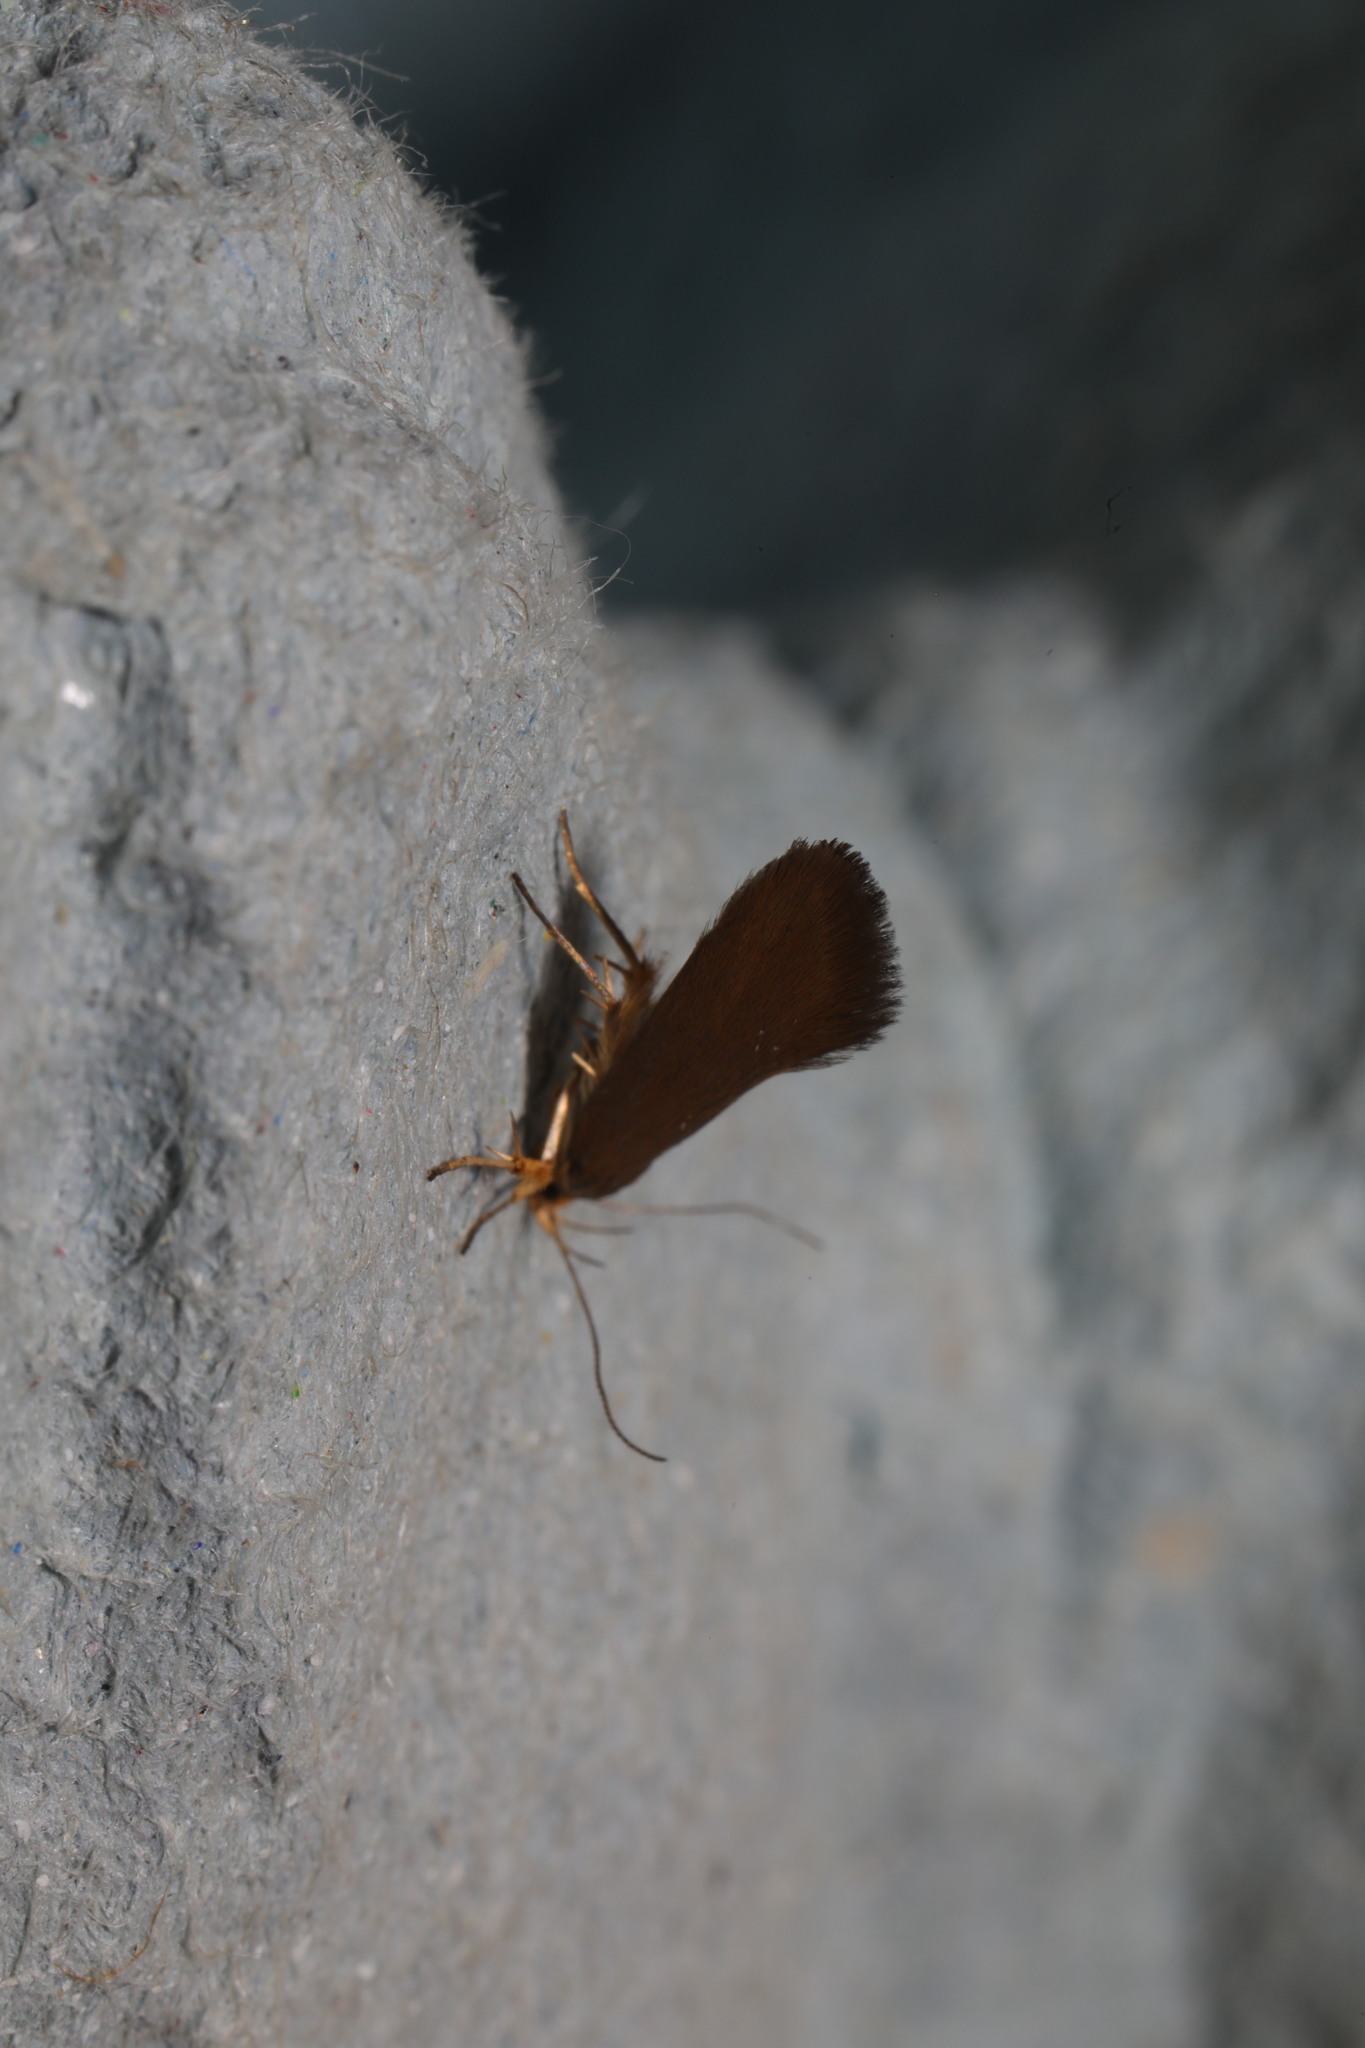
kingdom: Animalia
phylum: Arthropoda
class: Insecta
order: Lepidoptera
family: Oecophoridae
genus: Borkhausenia
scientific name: Borkhausenia Crassa unitella
